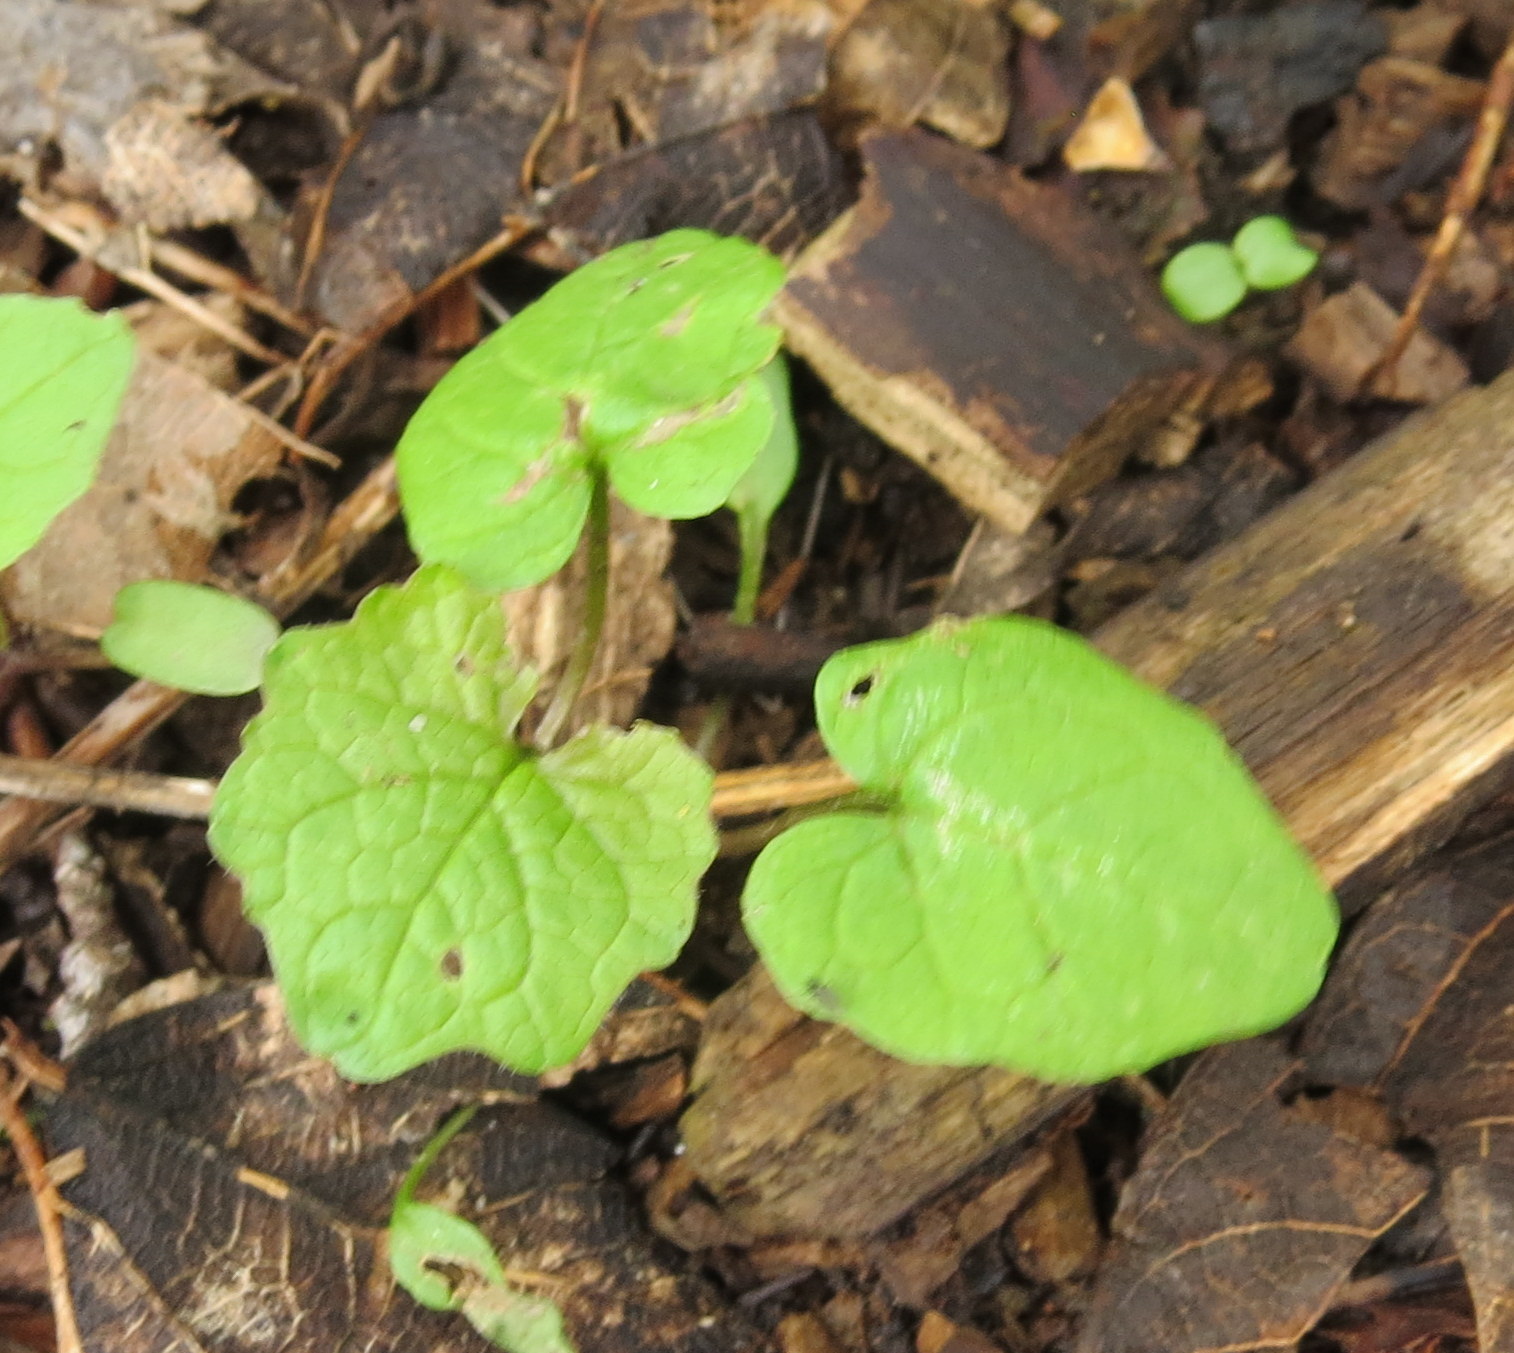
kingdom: Plantae
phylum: Tracheophyta
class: Magnoliopsida
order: Brassicales
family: Brassicaceae
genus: Alliaria
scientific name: Alliaria petiolata
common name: Garlic mustard
